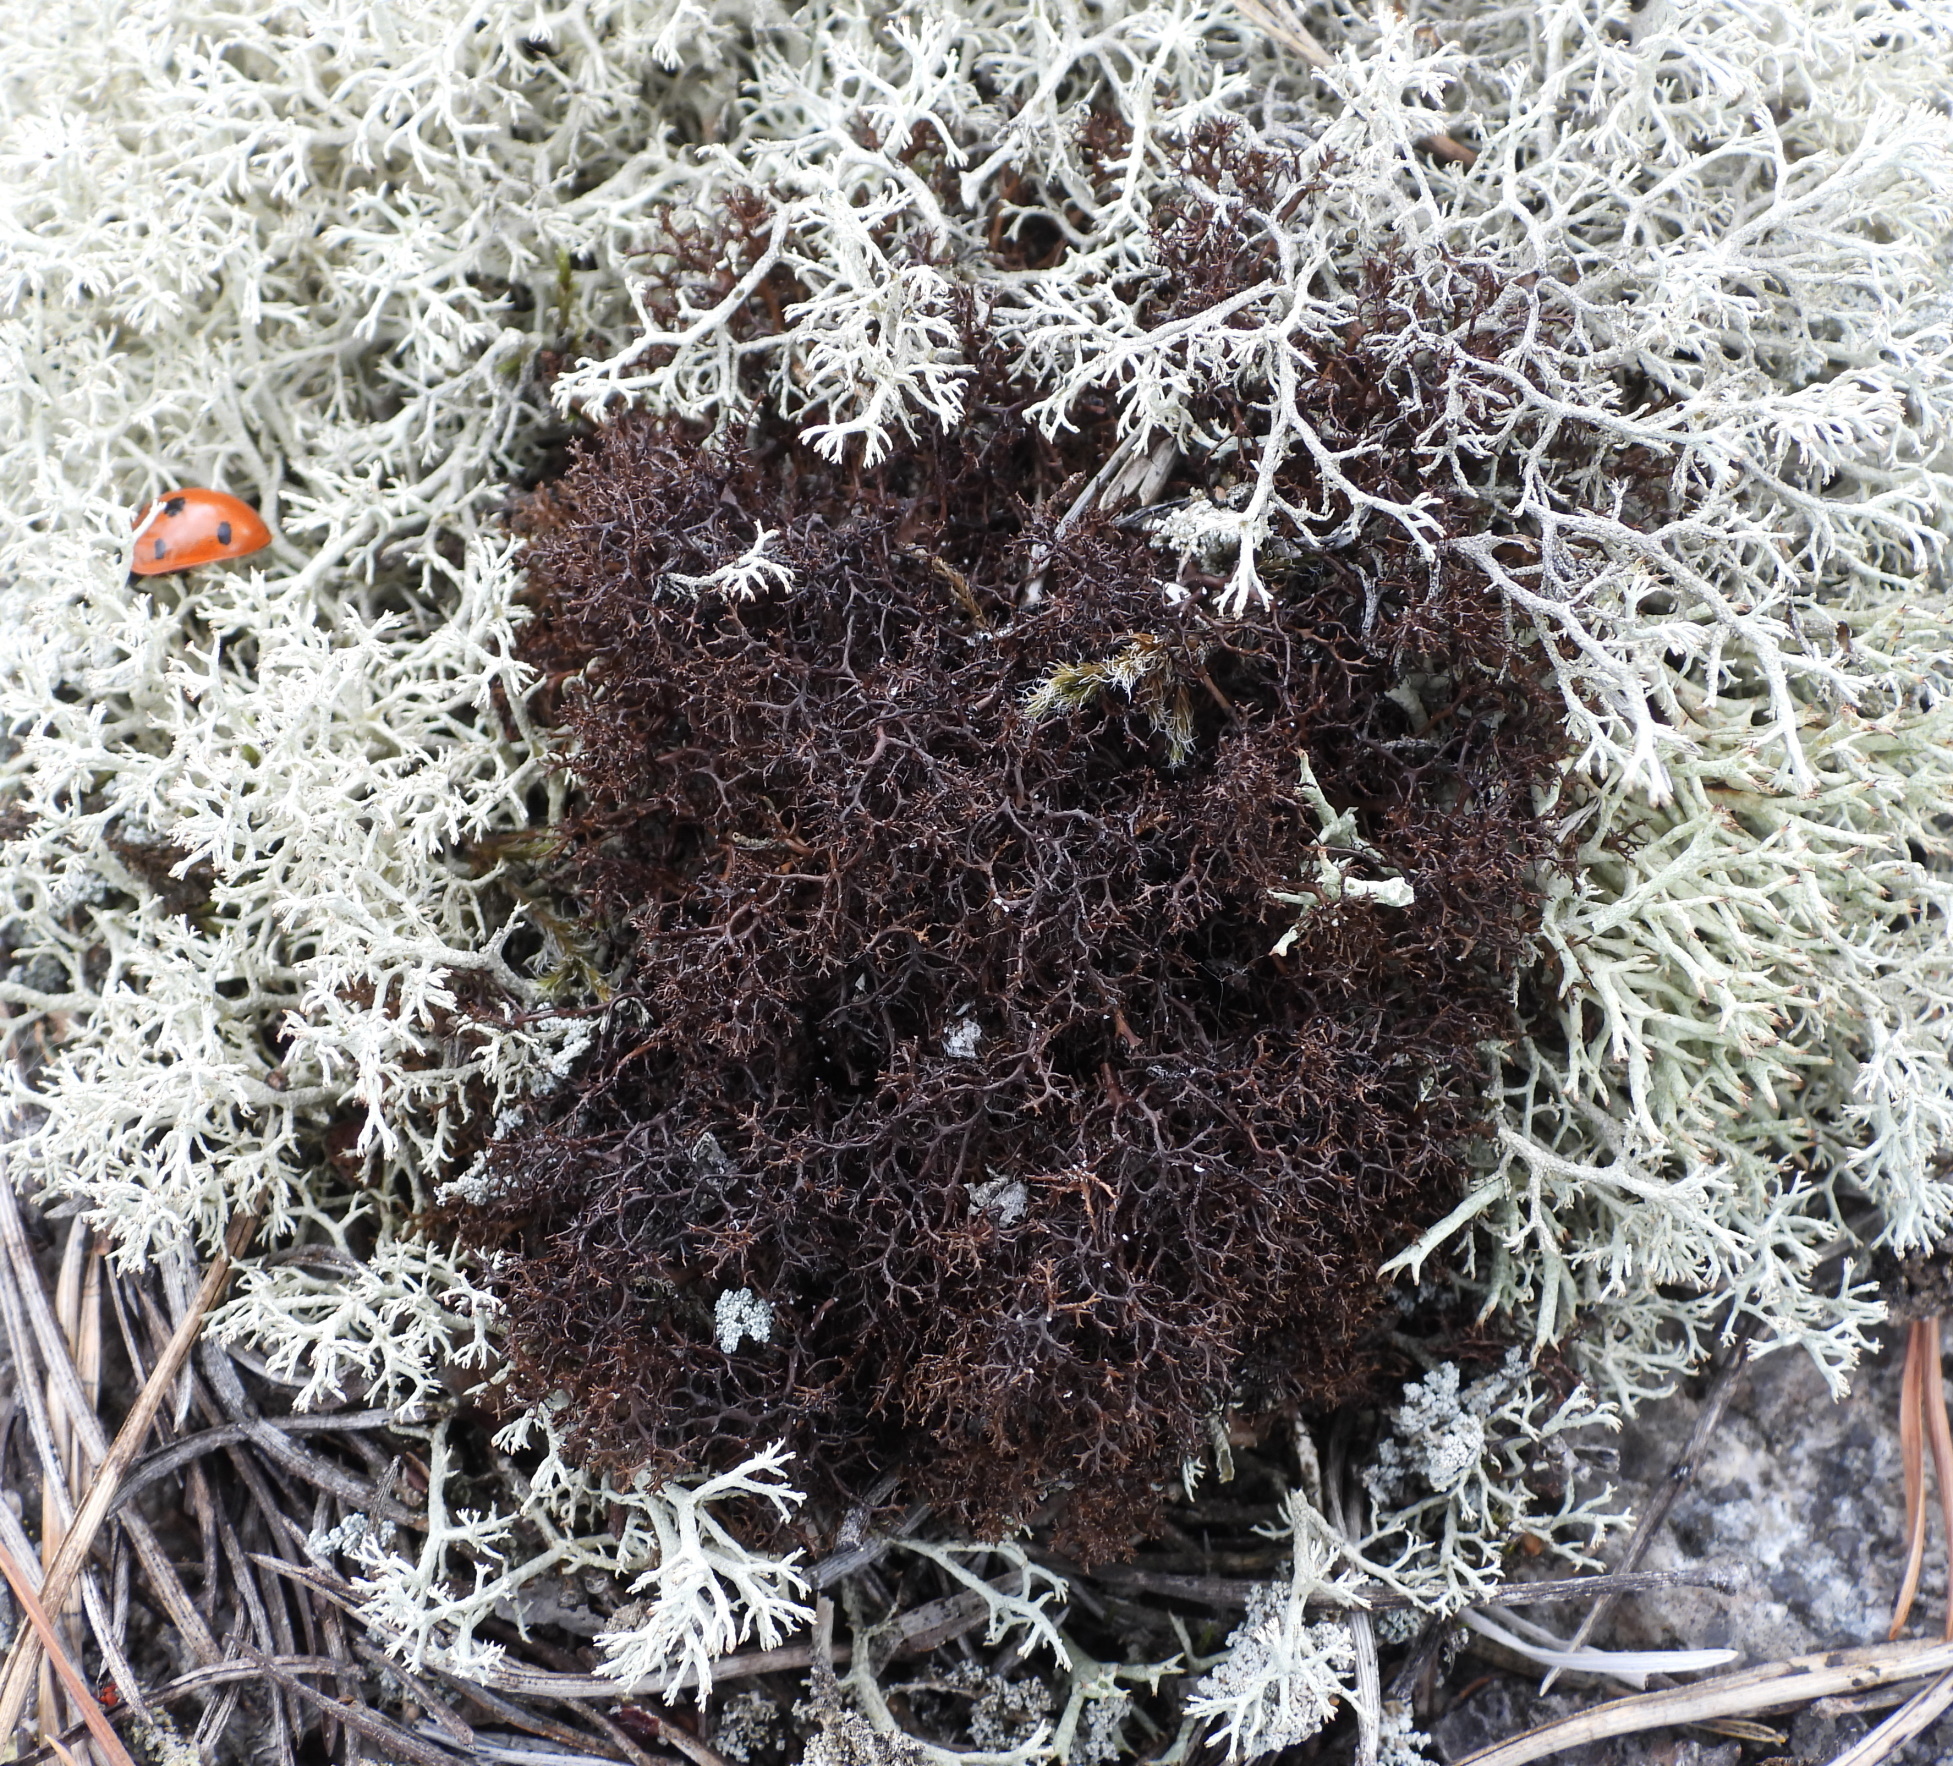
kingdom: Fungi
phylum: Ascomycota
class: Lecanoromycetes
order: Lecanorales
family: Parmeliaceae
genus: Cetraria
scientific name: Cetraria muricata
